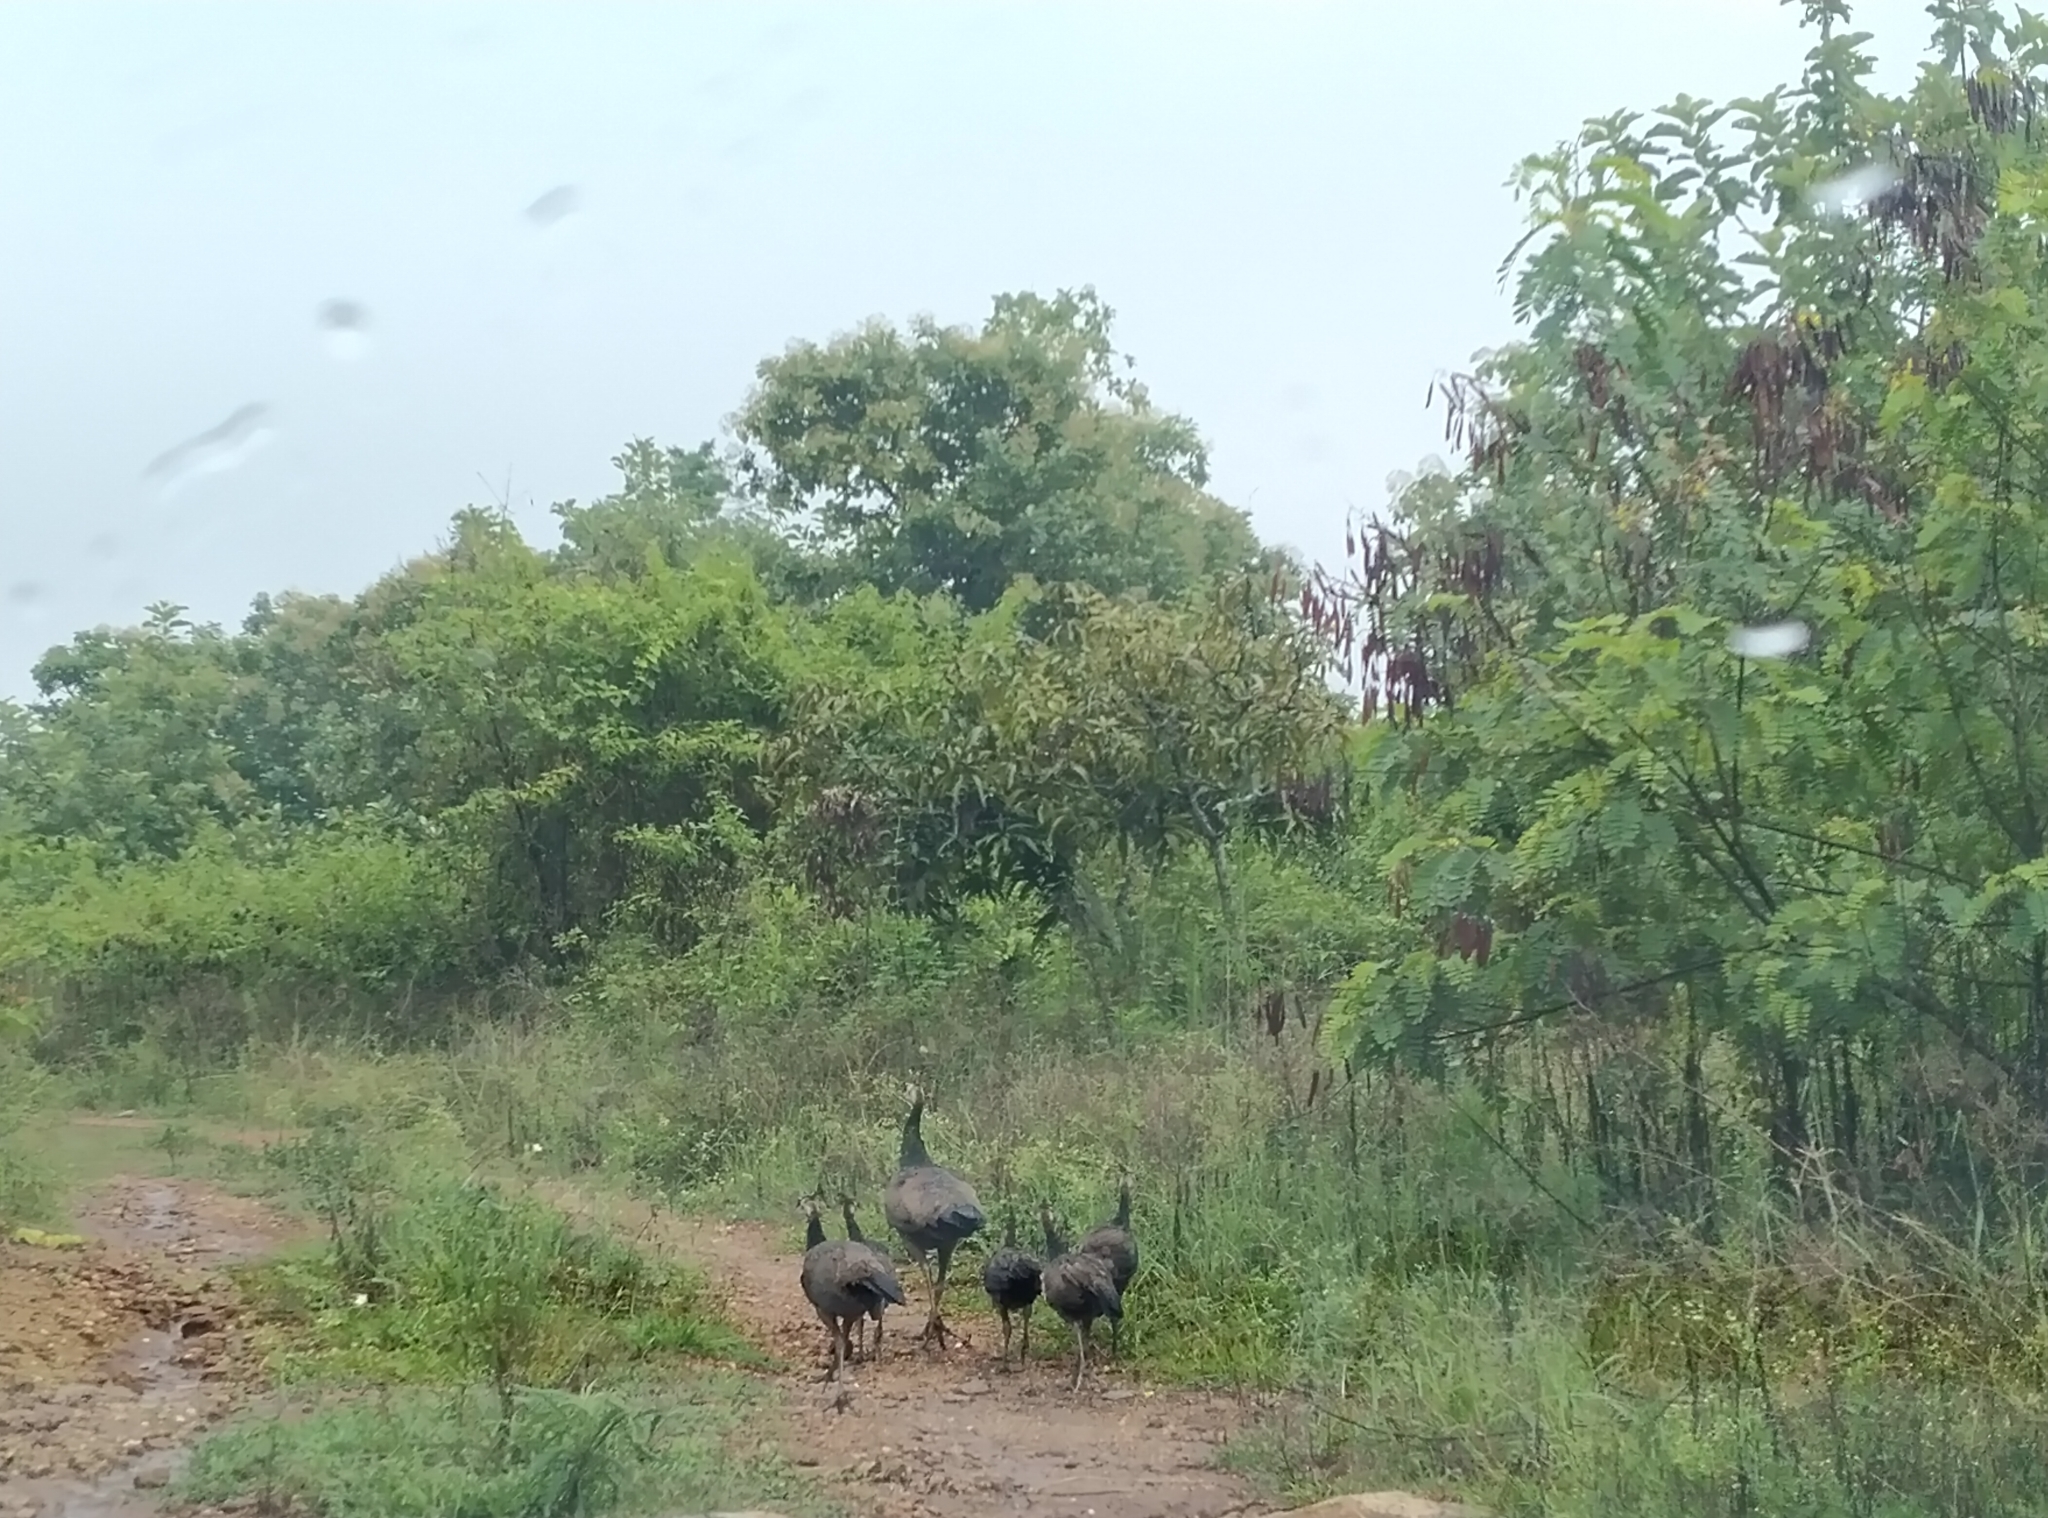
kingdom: Animalia
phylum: Chordata
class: Aves
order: Galliformes
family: Phasianidae
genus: Pavo
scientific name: Pavo cristatus
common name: Indian peafowl
